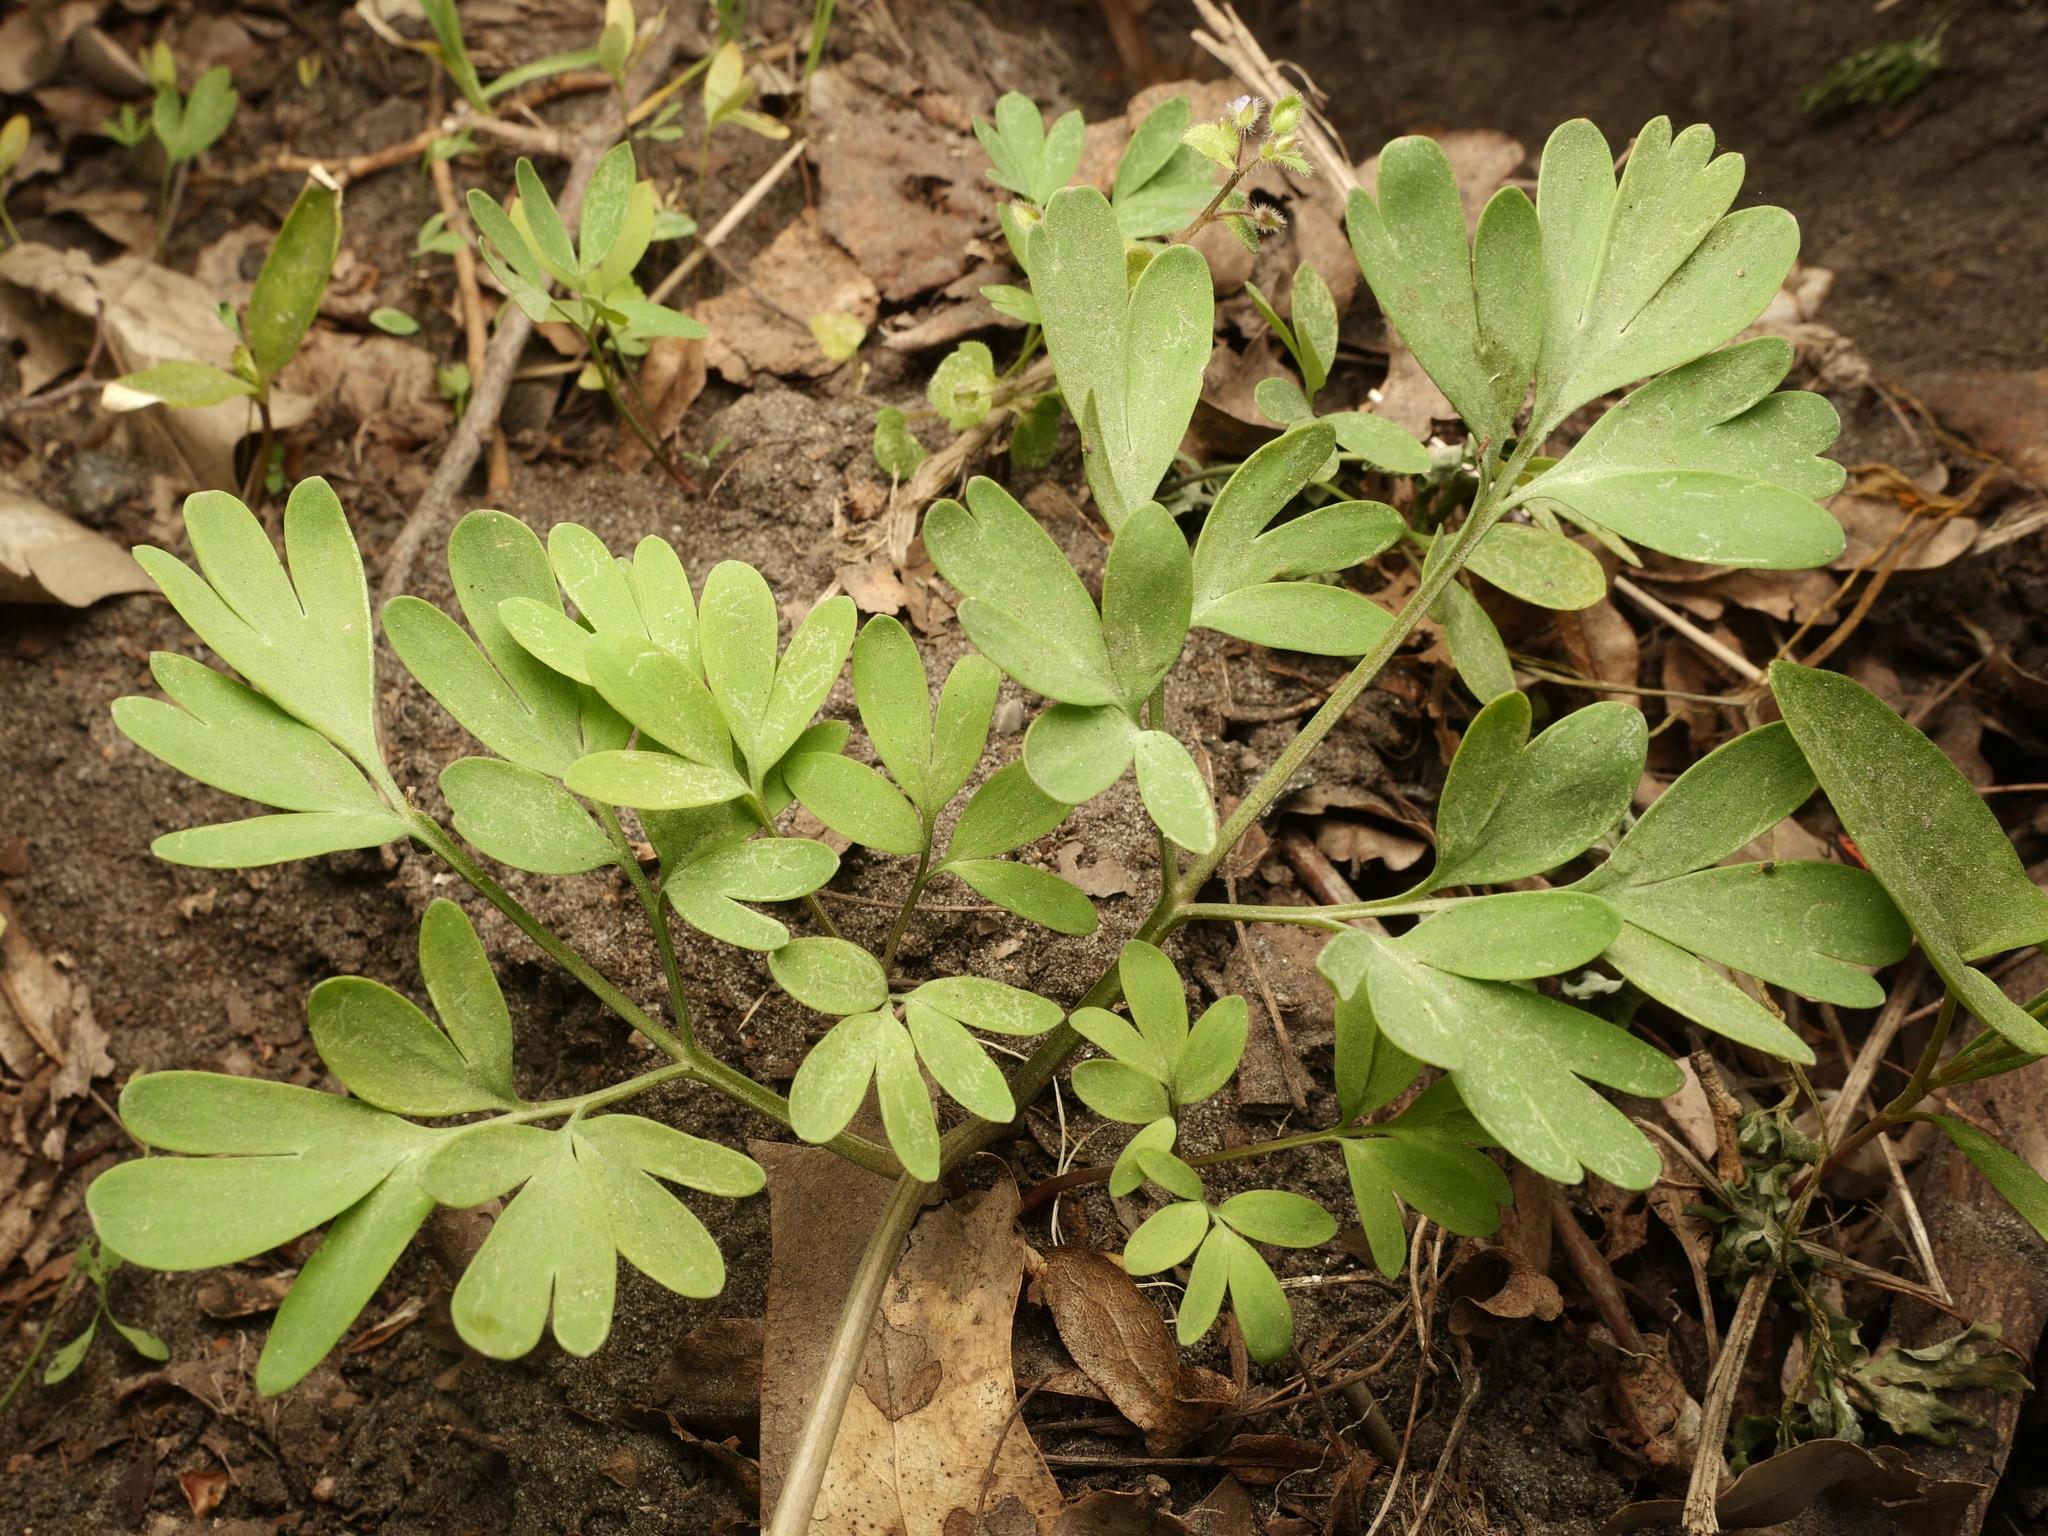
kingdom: Plantae
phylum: Tracheophyta
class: Magnoliopsida
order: Ranunculales
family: Papaveraceae
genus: Corydalis
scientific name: Corydalis solida
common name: Bird-in-a-bush
